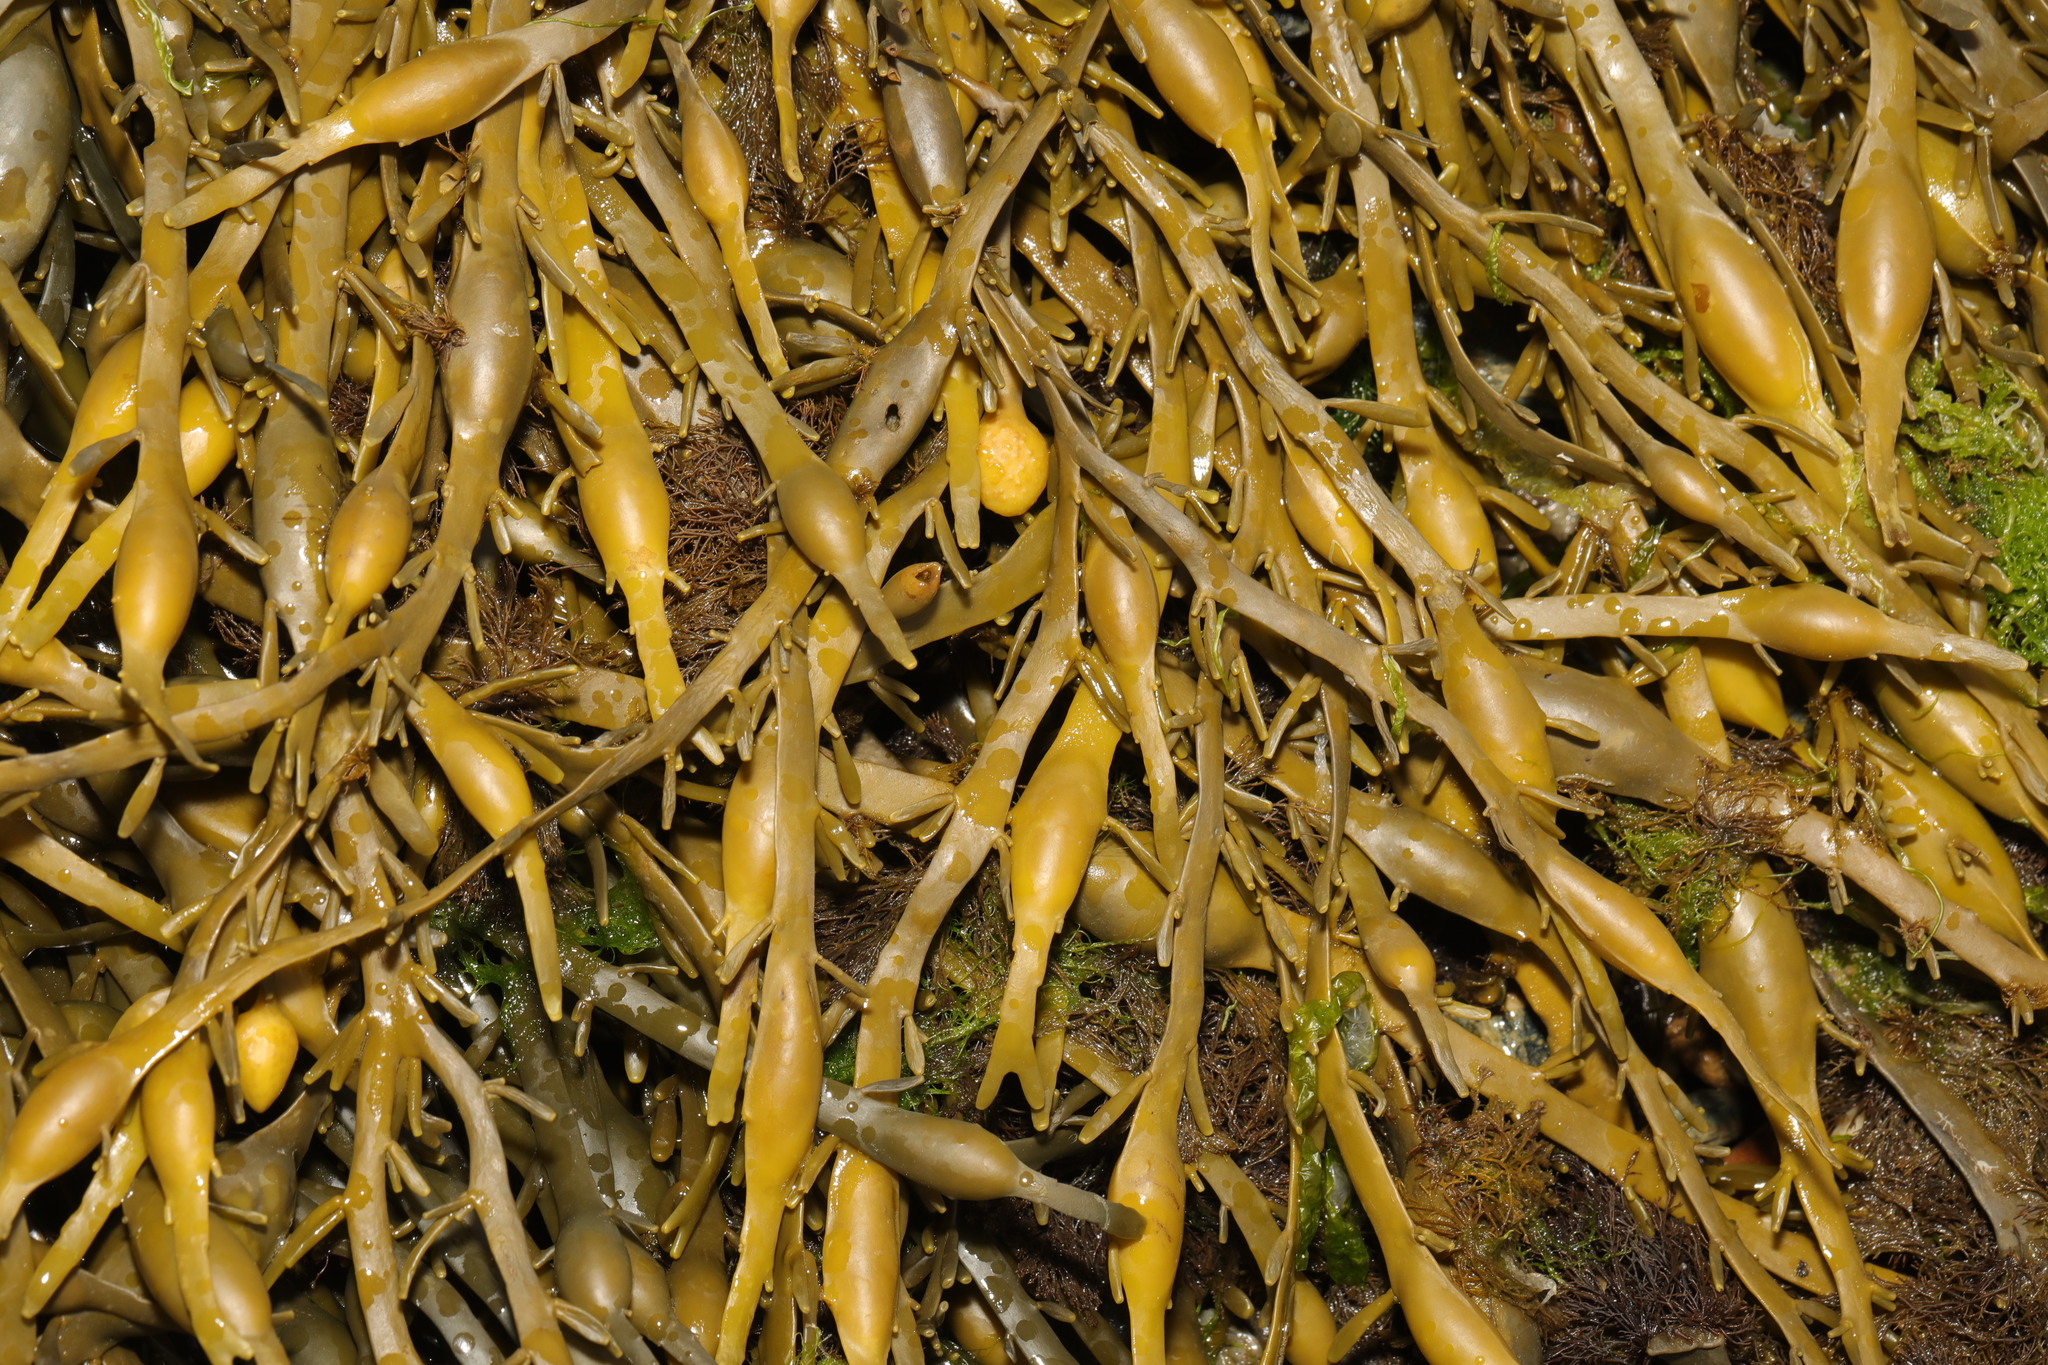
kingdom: Chromista
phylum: Ochrophyta
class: Phaeophyceae
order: Fucales
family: Fucaceae
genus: Ascophyllum
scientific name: Ascophyllum nodosum
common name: Knotted wrack
